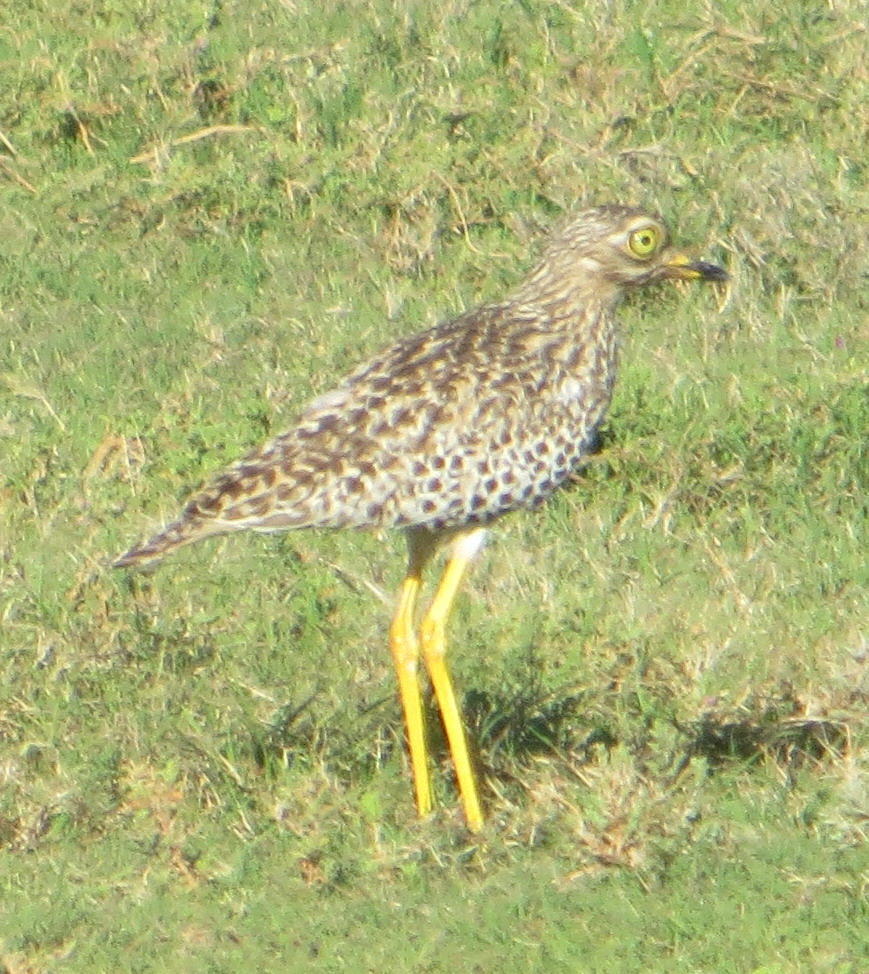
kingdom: Animalia
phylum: Chordata
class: Aves
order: Charadriiformes
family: Burhinidae
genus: Burhinus
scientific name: Burhinus capensis
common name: Spotted thick-knee
